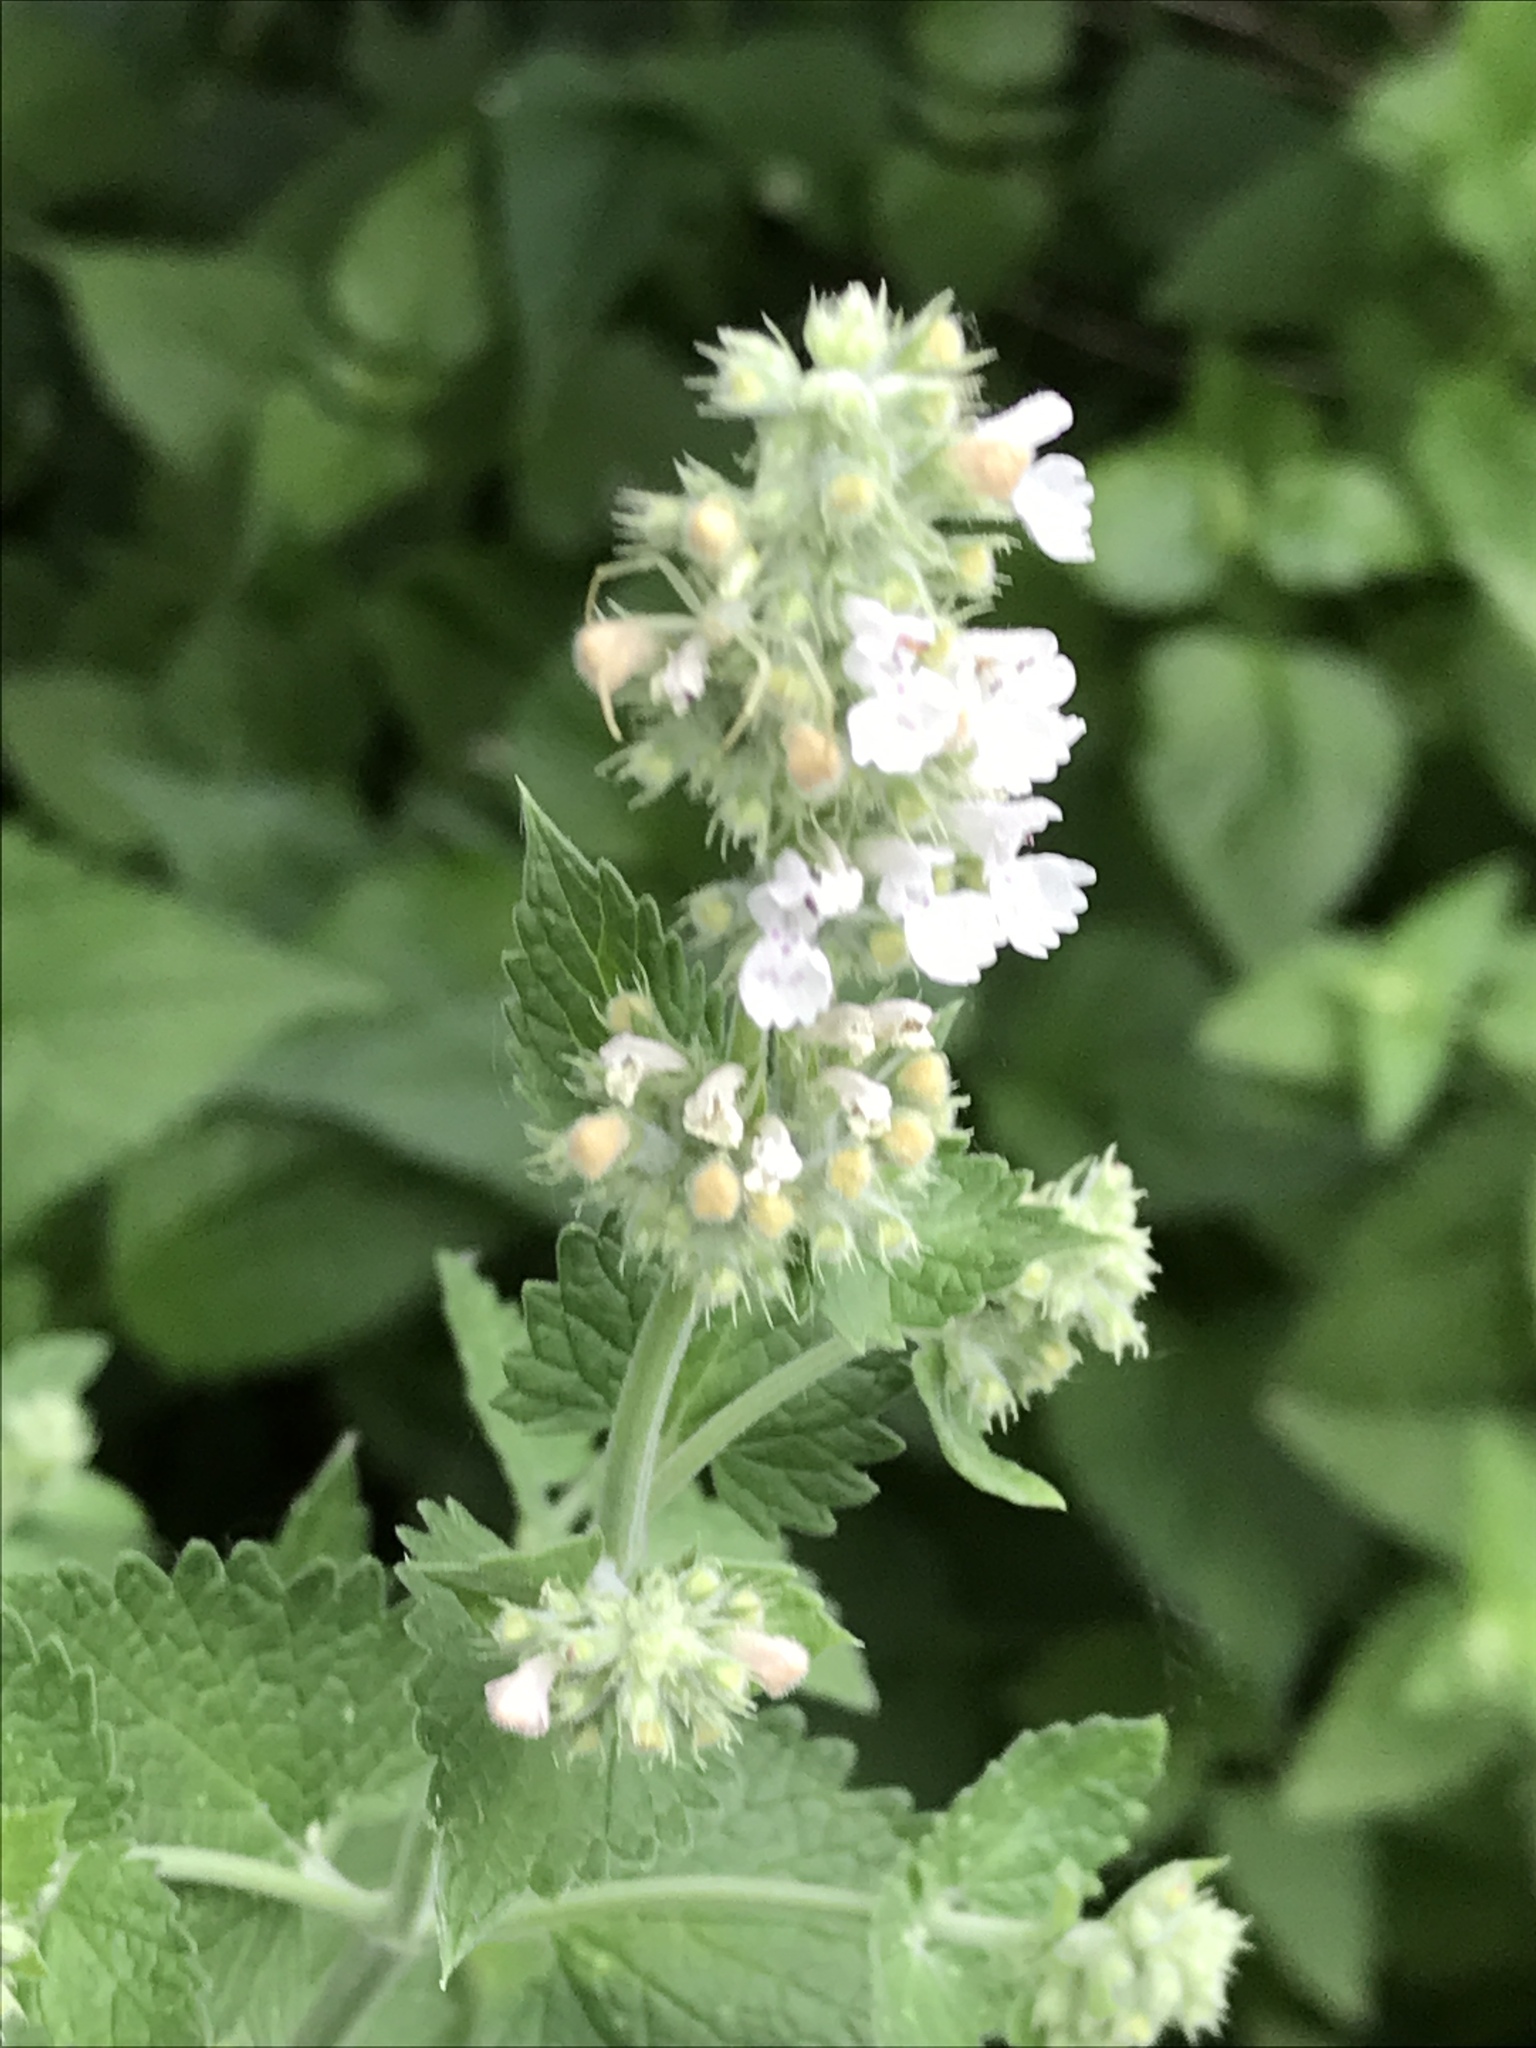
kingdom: Plantae
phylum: Tracheophyta
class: Magnoliopsida
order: Lamiales
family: Lamiaceae
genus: Nepeta
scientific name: Nepeta cataria
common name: Catnip
